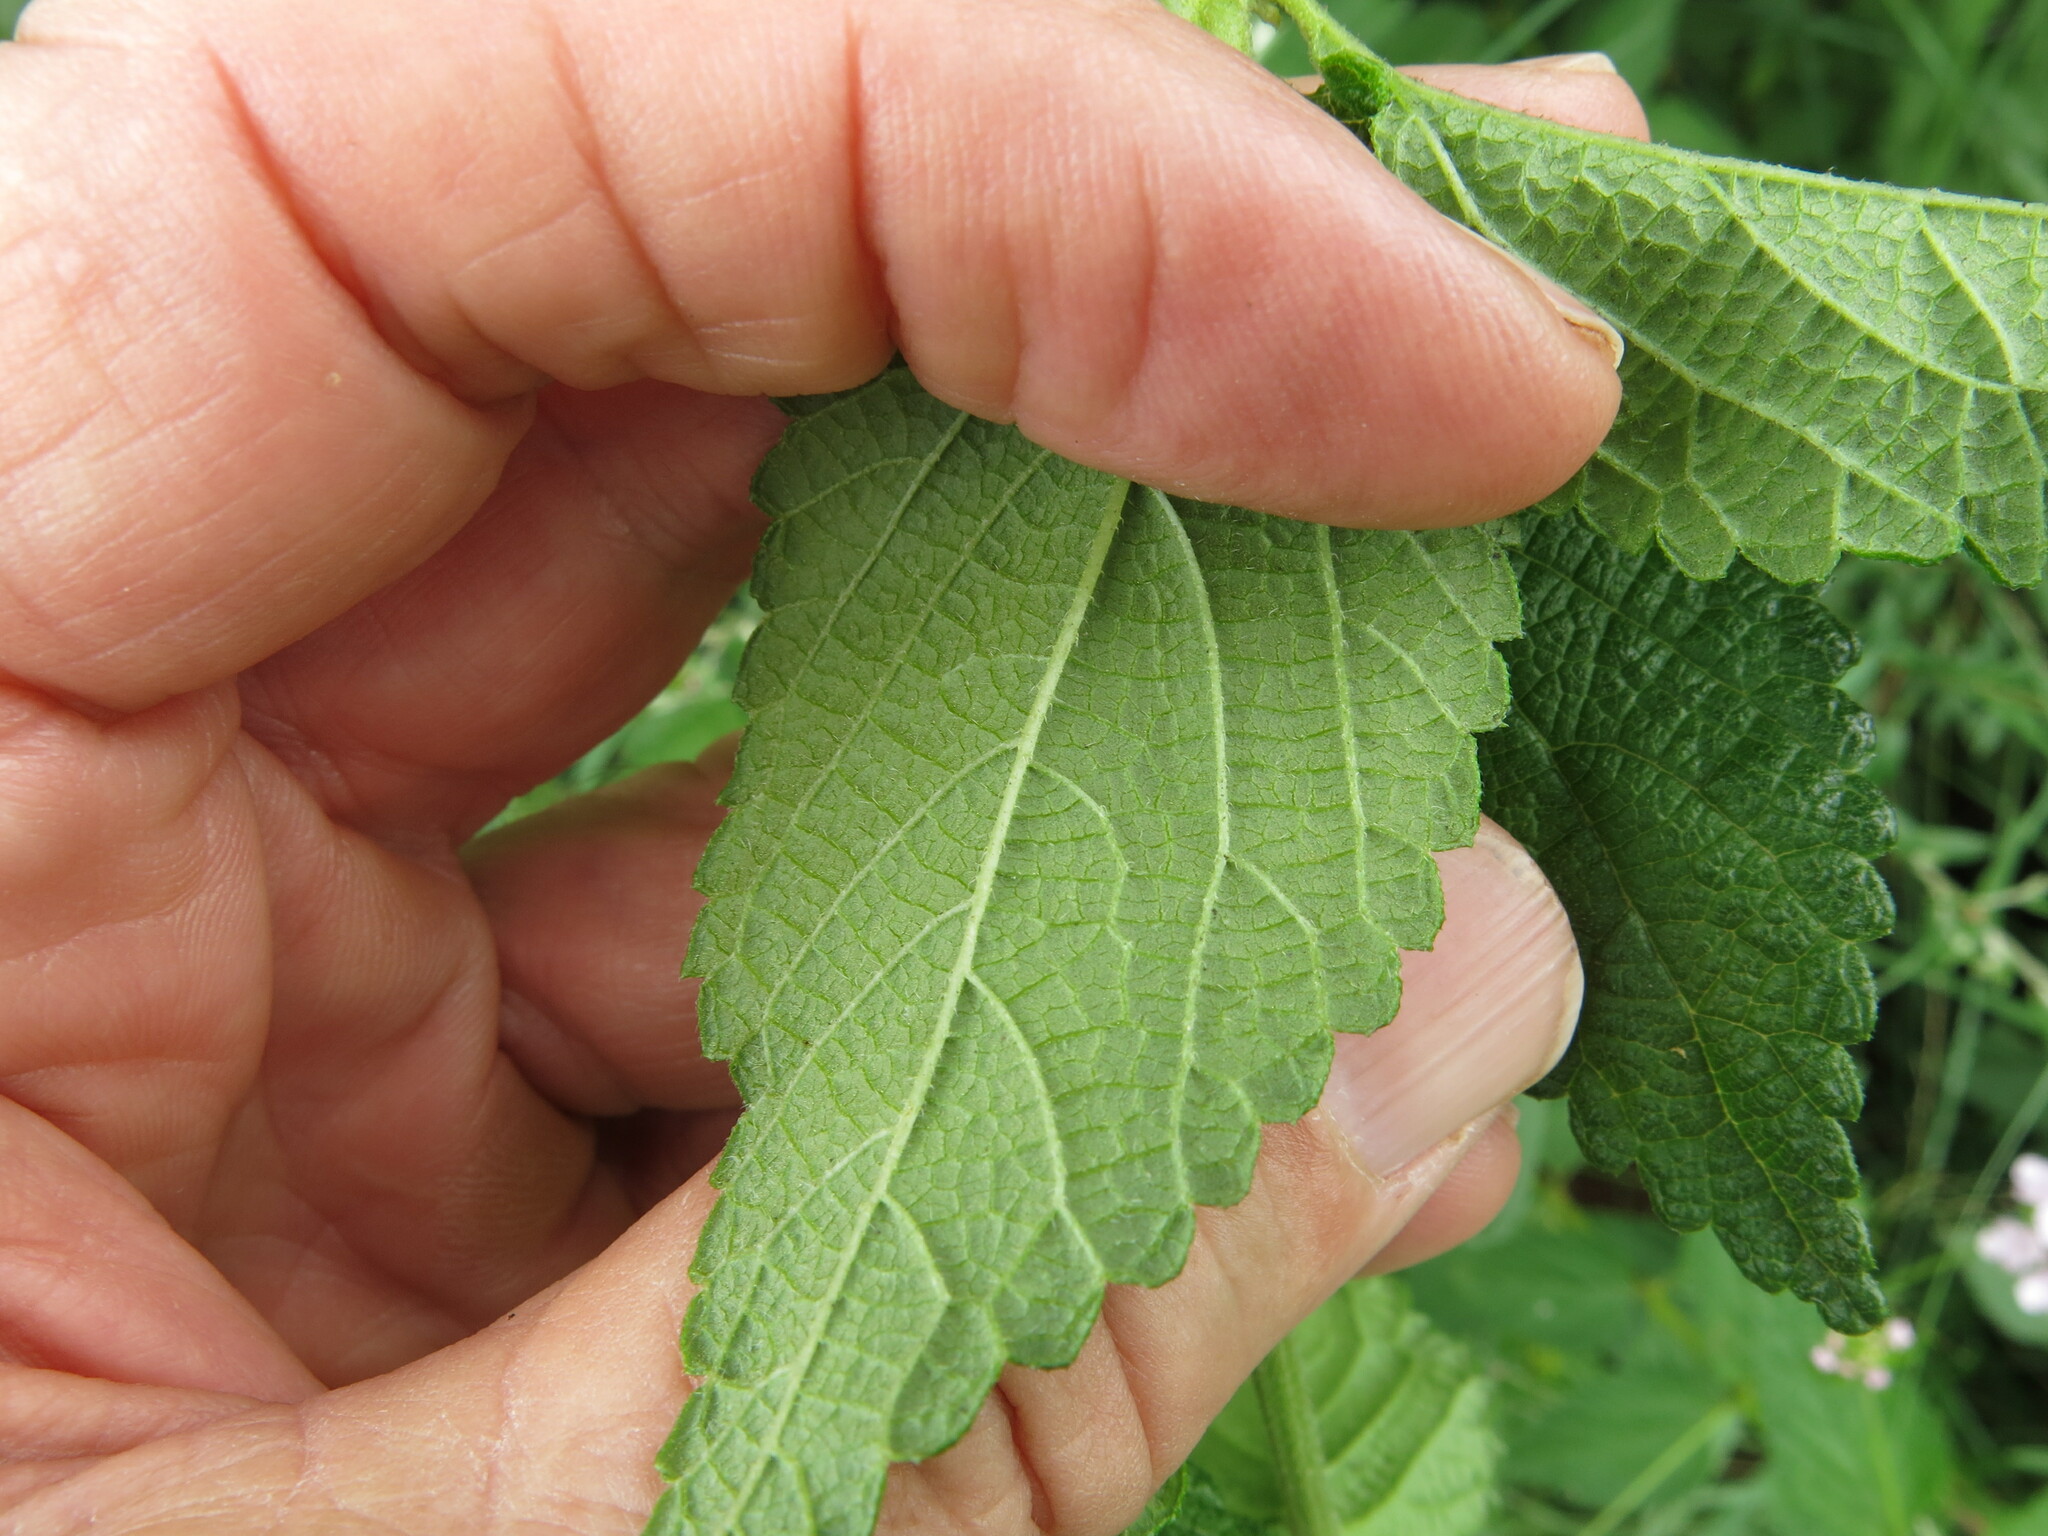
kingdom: Plantae
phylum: Tracheophyta
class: Magnoliopsida
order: Lamiales
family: Verbenaceae
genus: Lantana
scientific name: Lantana camara
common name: Lantana
